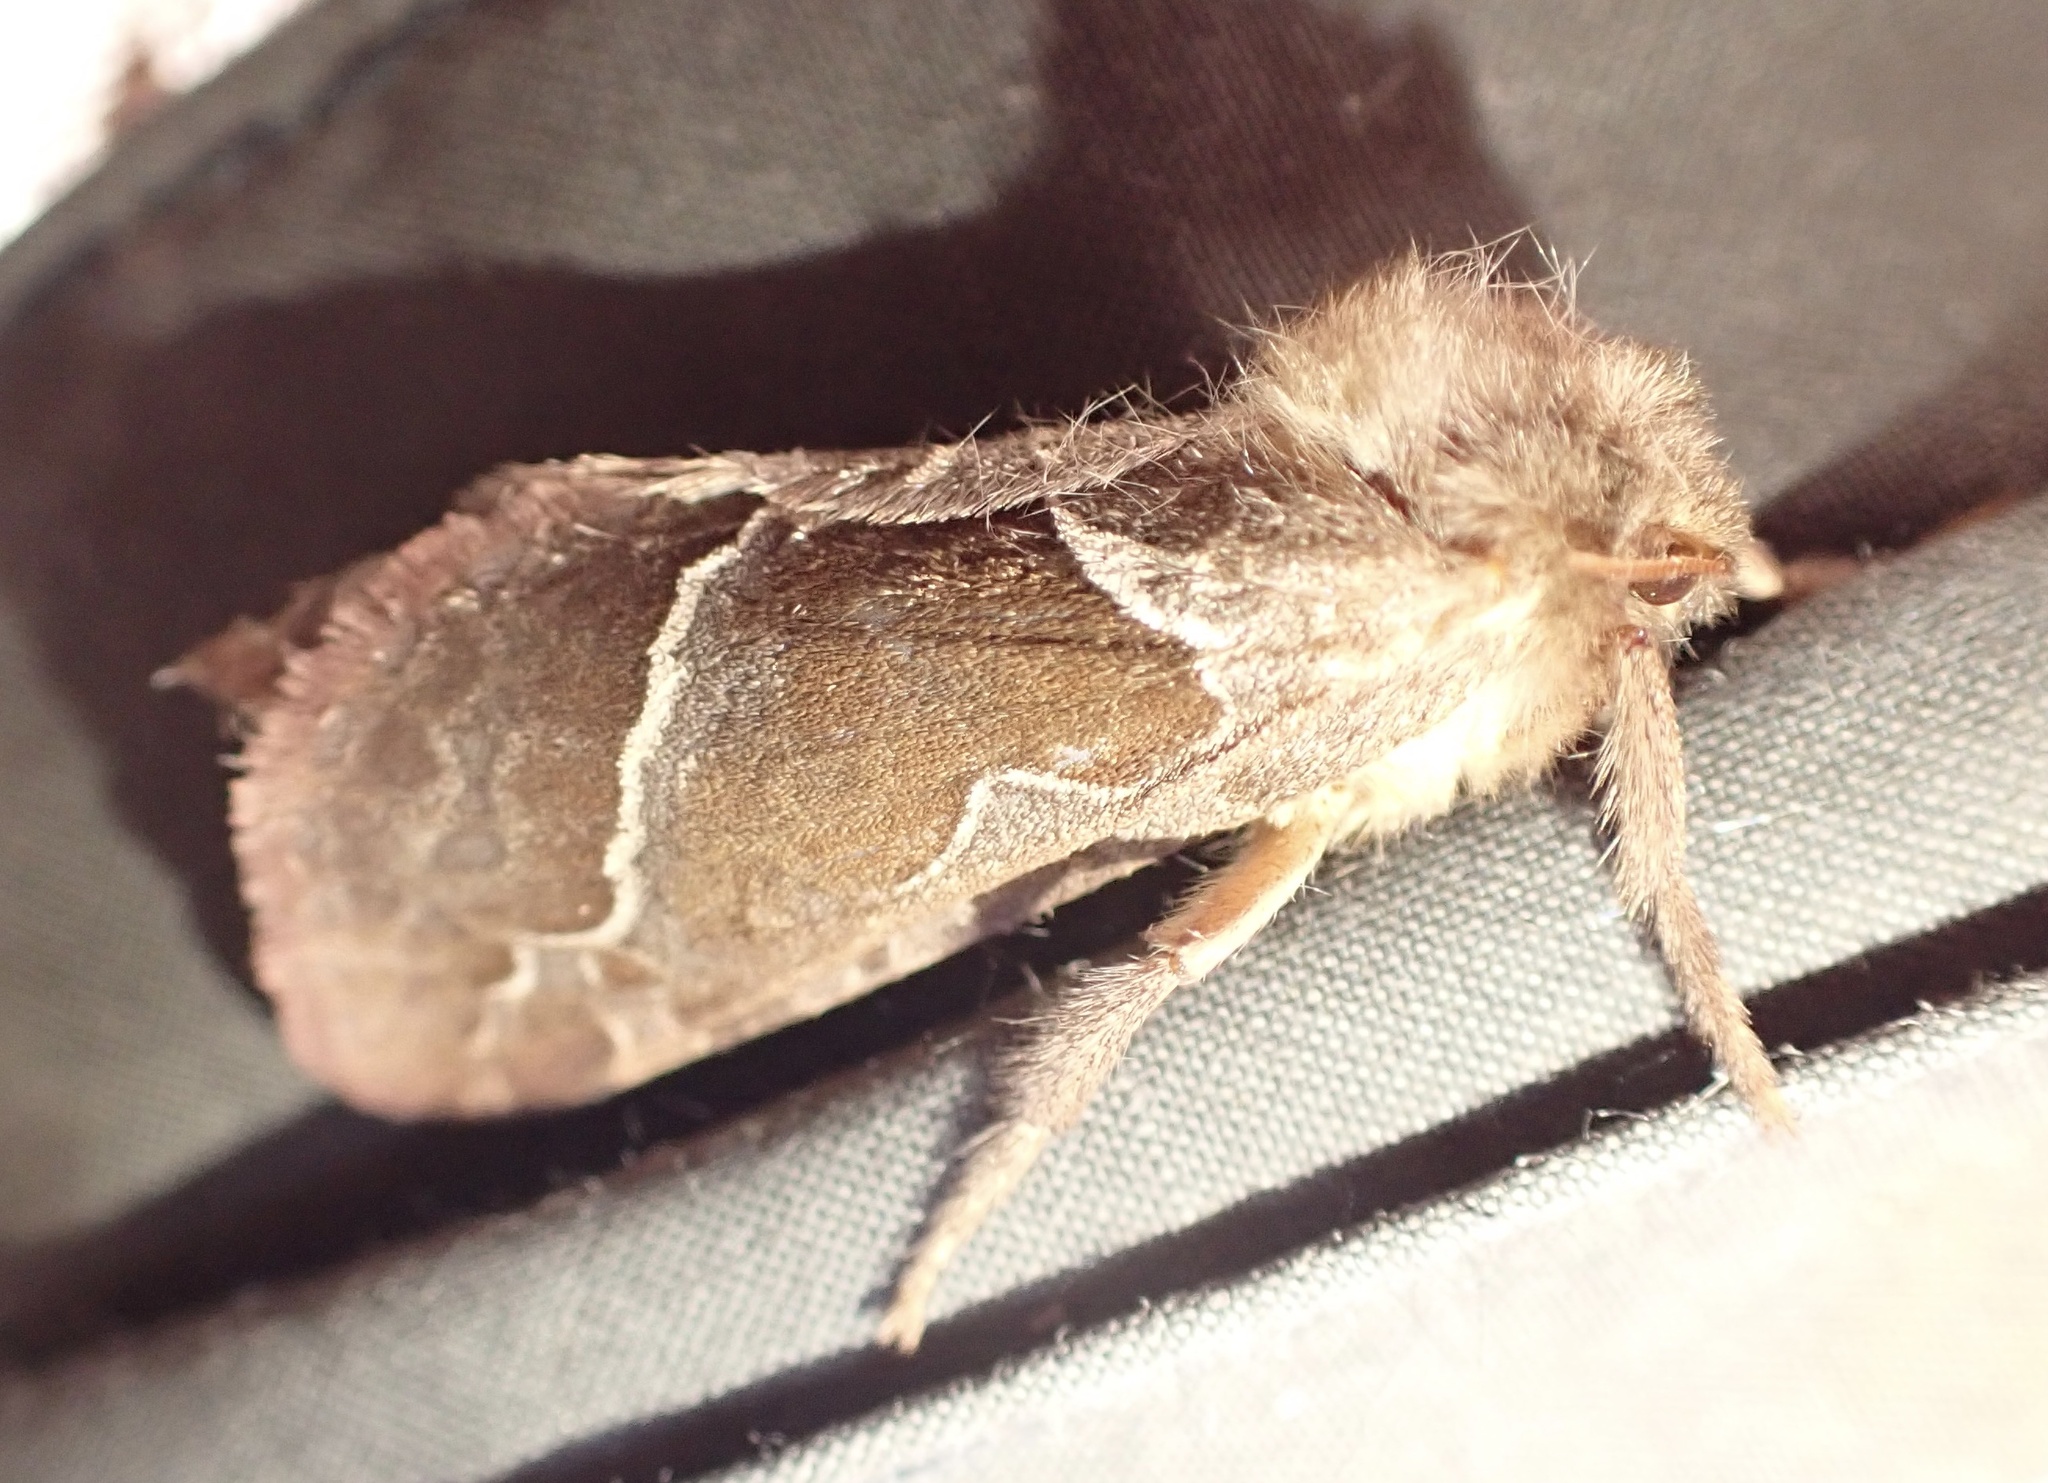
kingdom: Animalia
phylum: Arthropoda
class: Insecta
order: Lepidoptera
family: Hepialidae
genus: Triodia
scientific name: Triodia sylvina
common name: Orange swift
